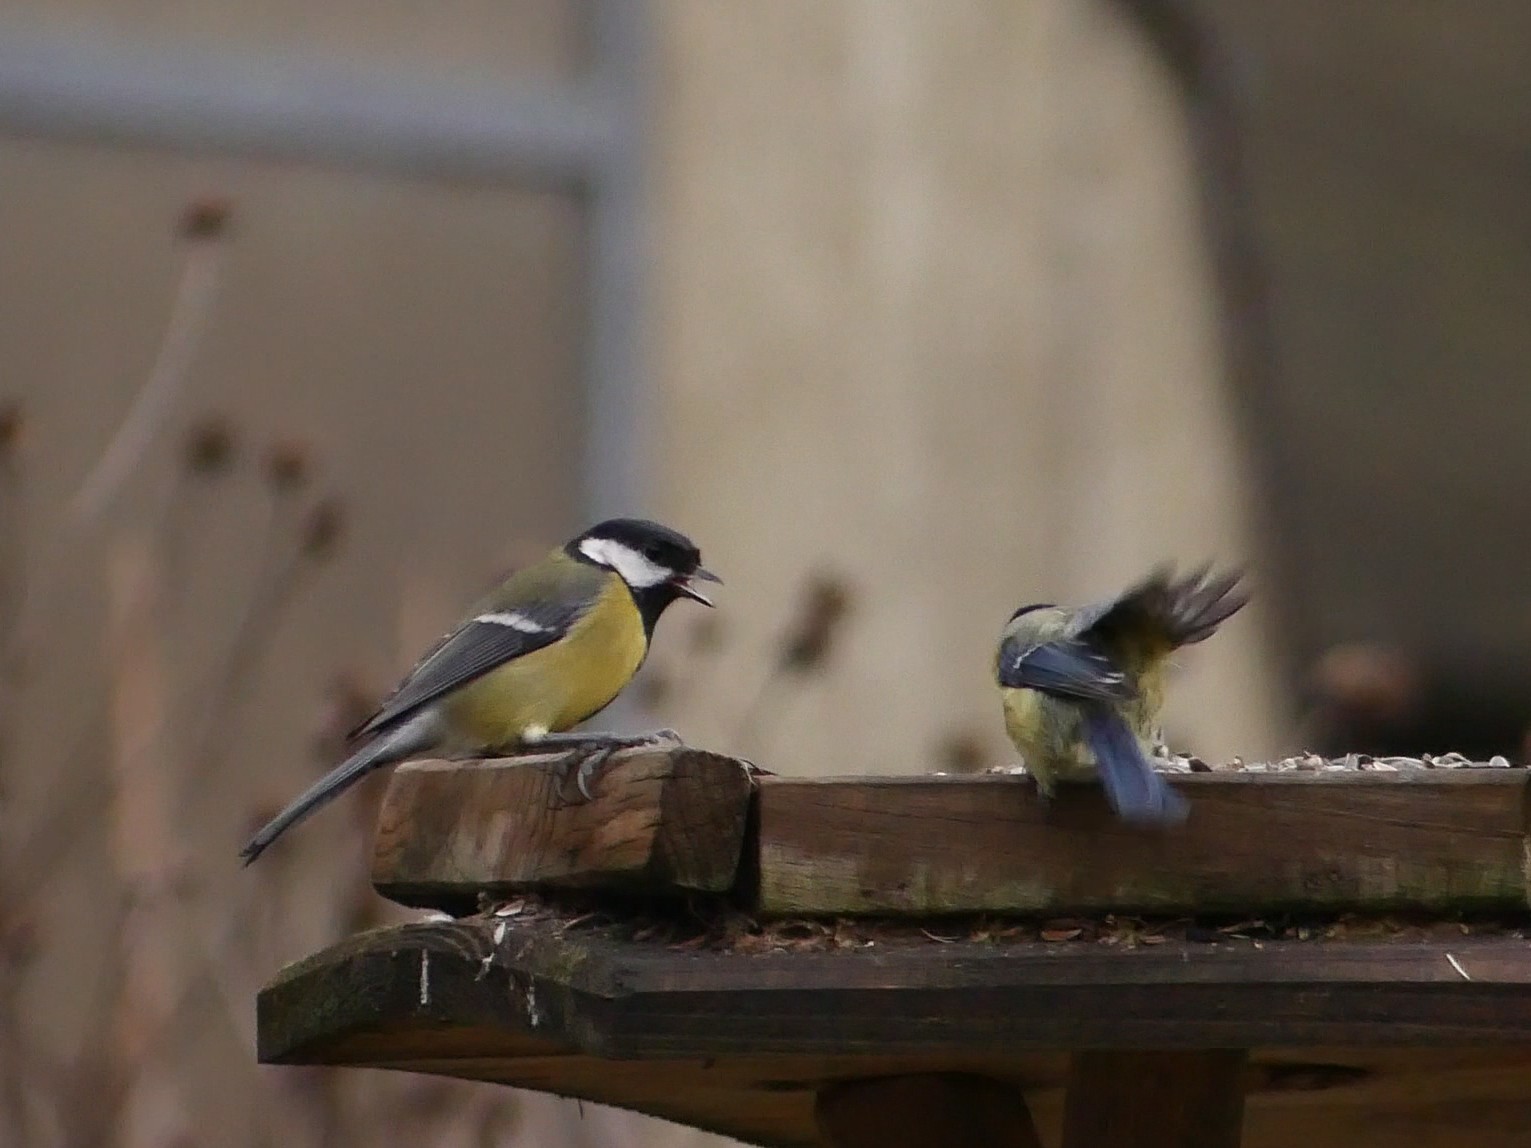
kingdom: Animalia
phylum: Chordata
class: Aves
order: Passeriformes
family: Paridae
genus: Parus
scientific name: Parus major
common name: Great tit
